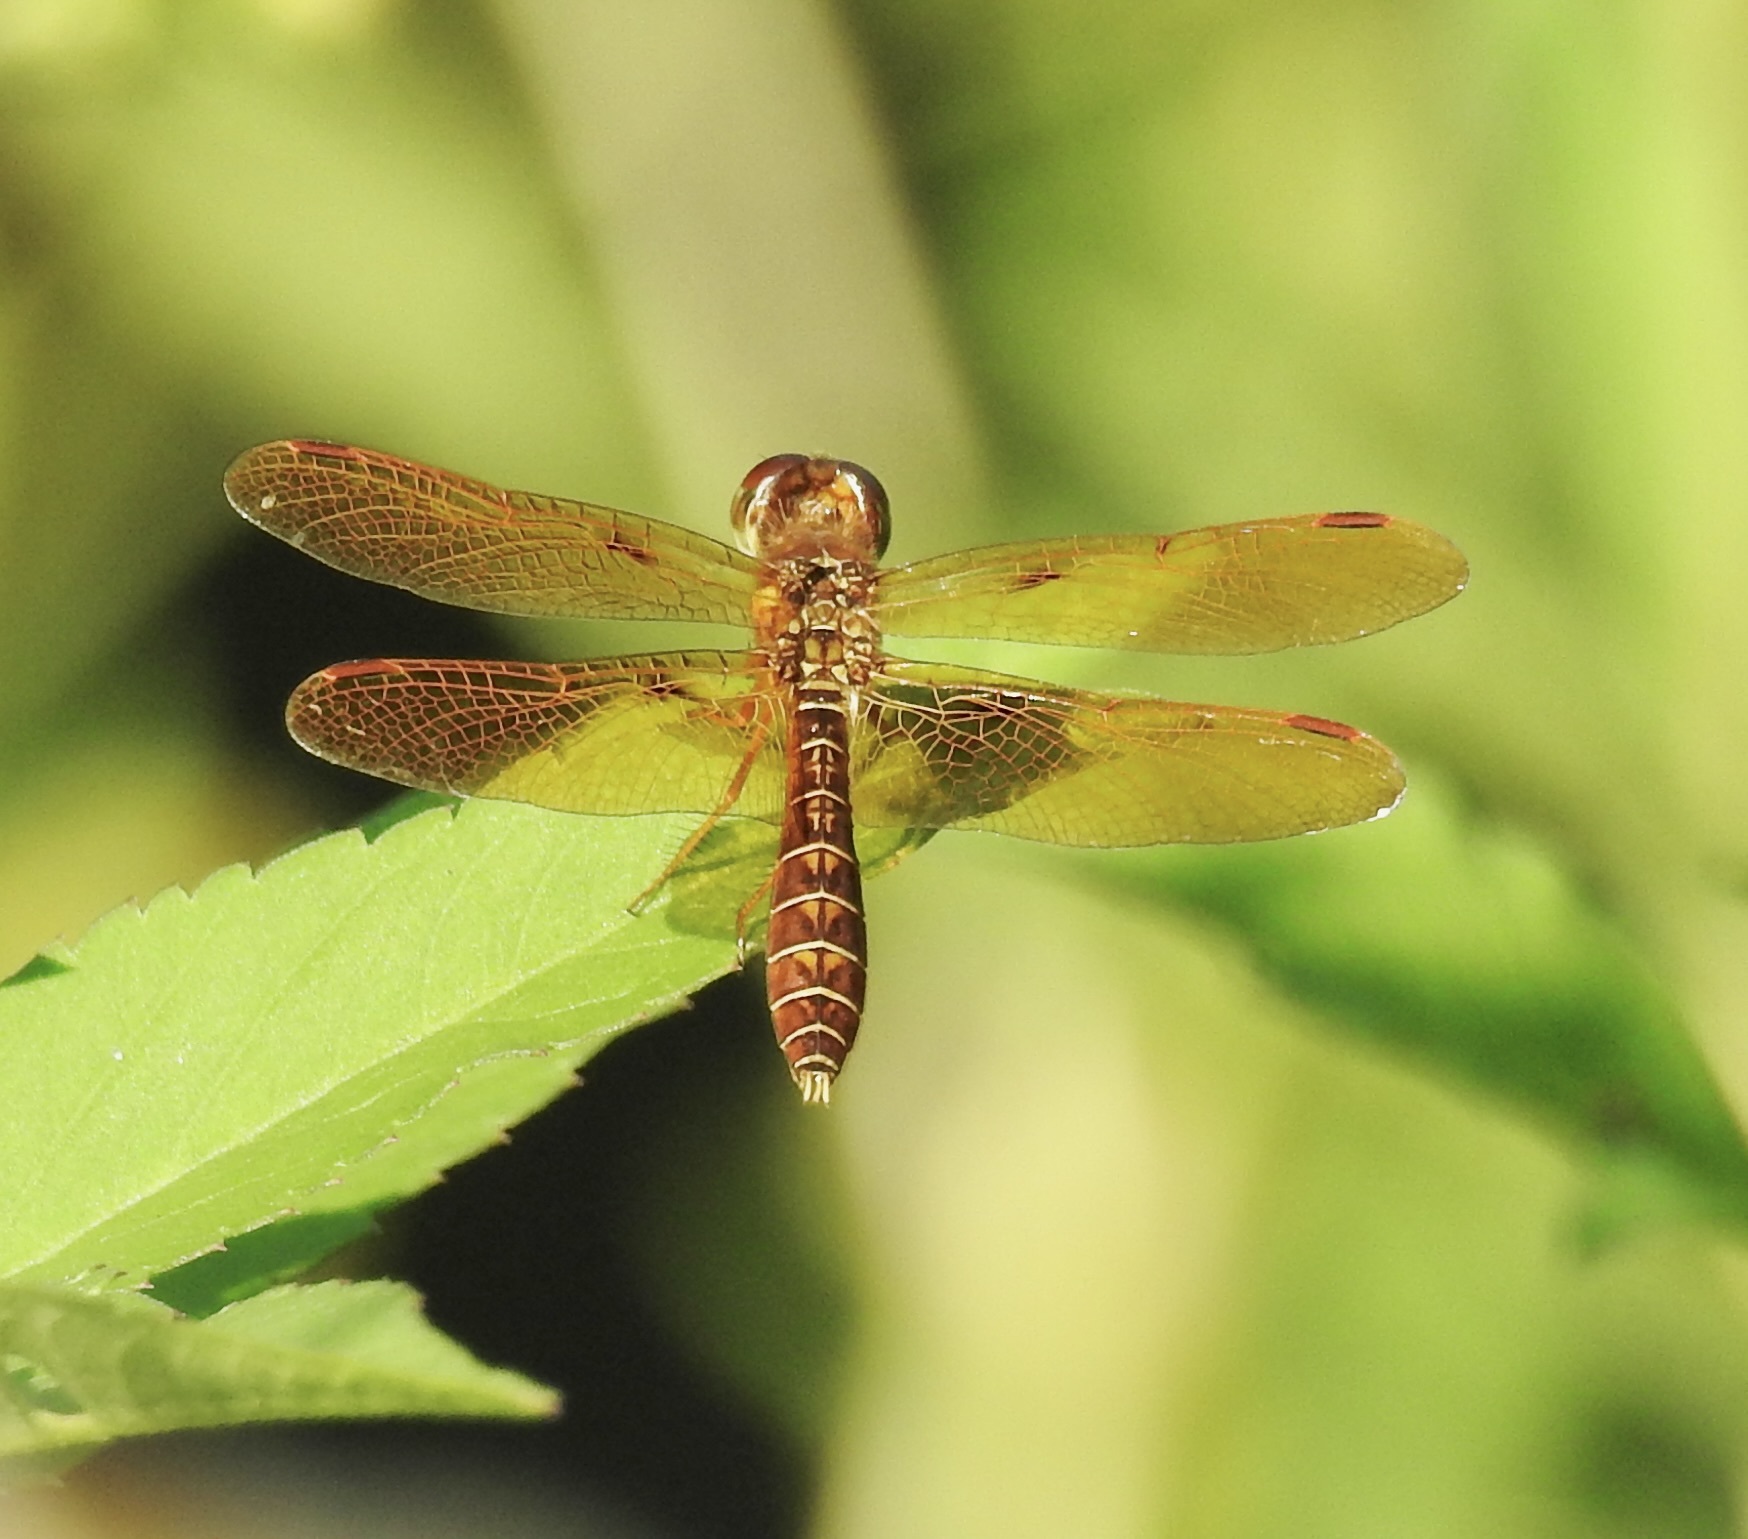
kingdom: Animalia
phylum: Arthropoda
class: Insecta
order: Odonata
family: Libellulidae
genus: Perithemis
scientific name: Perithemis tenera
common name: Eastern amberwing
